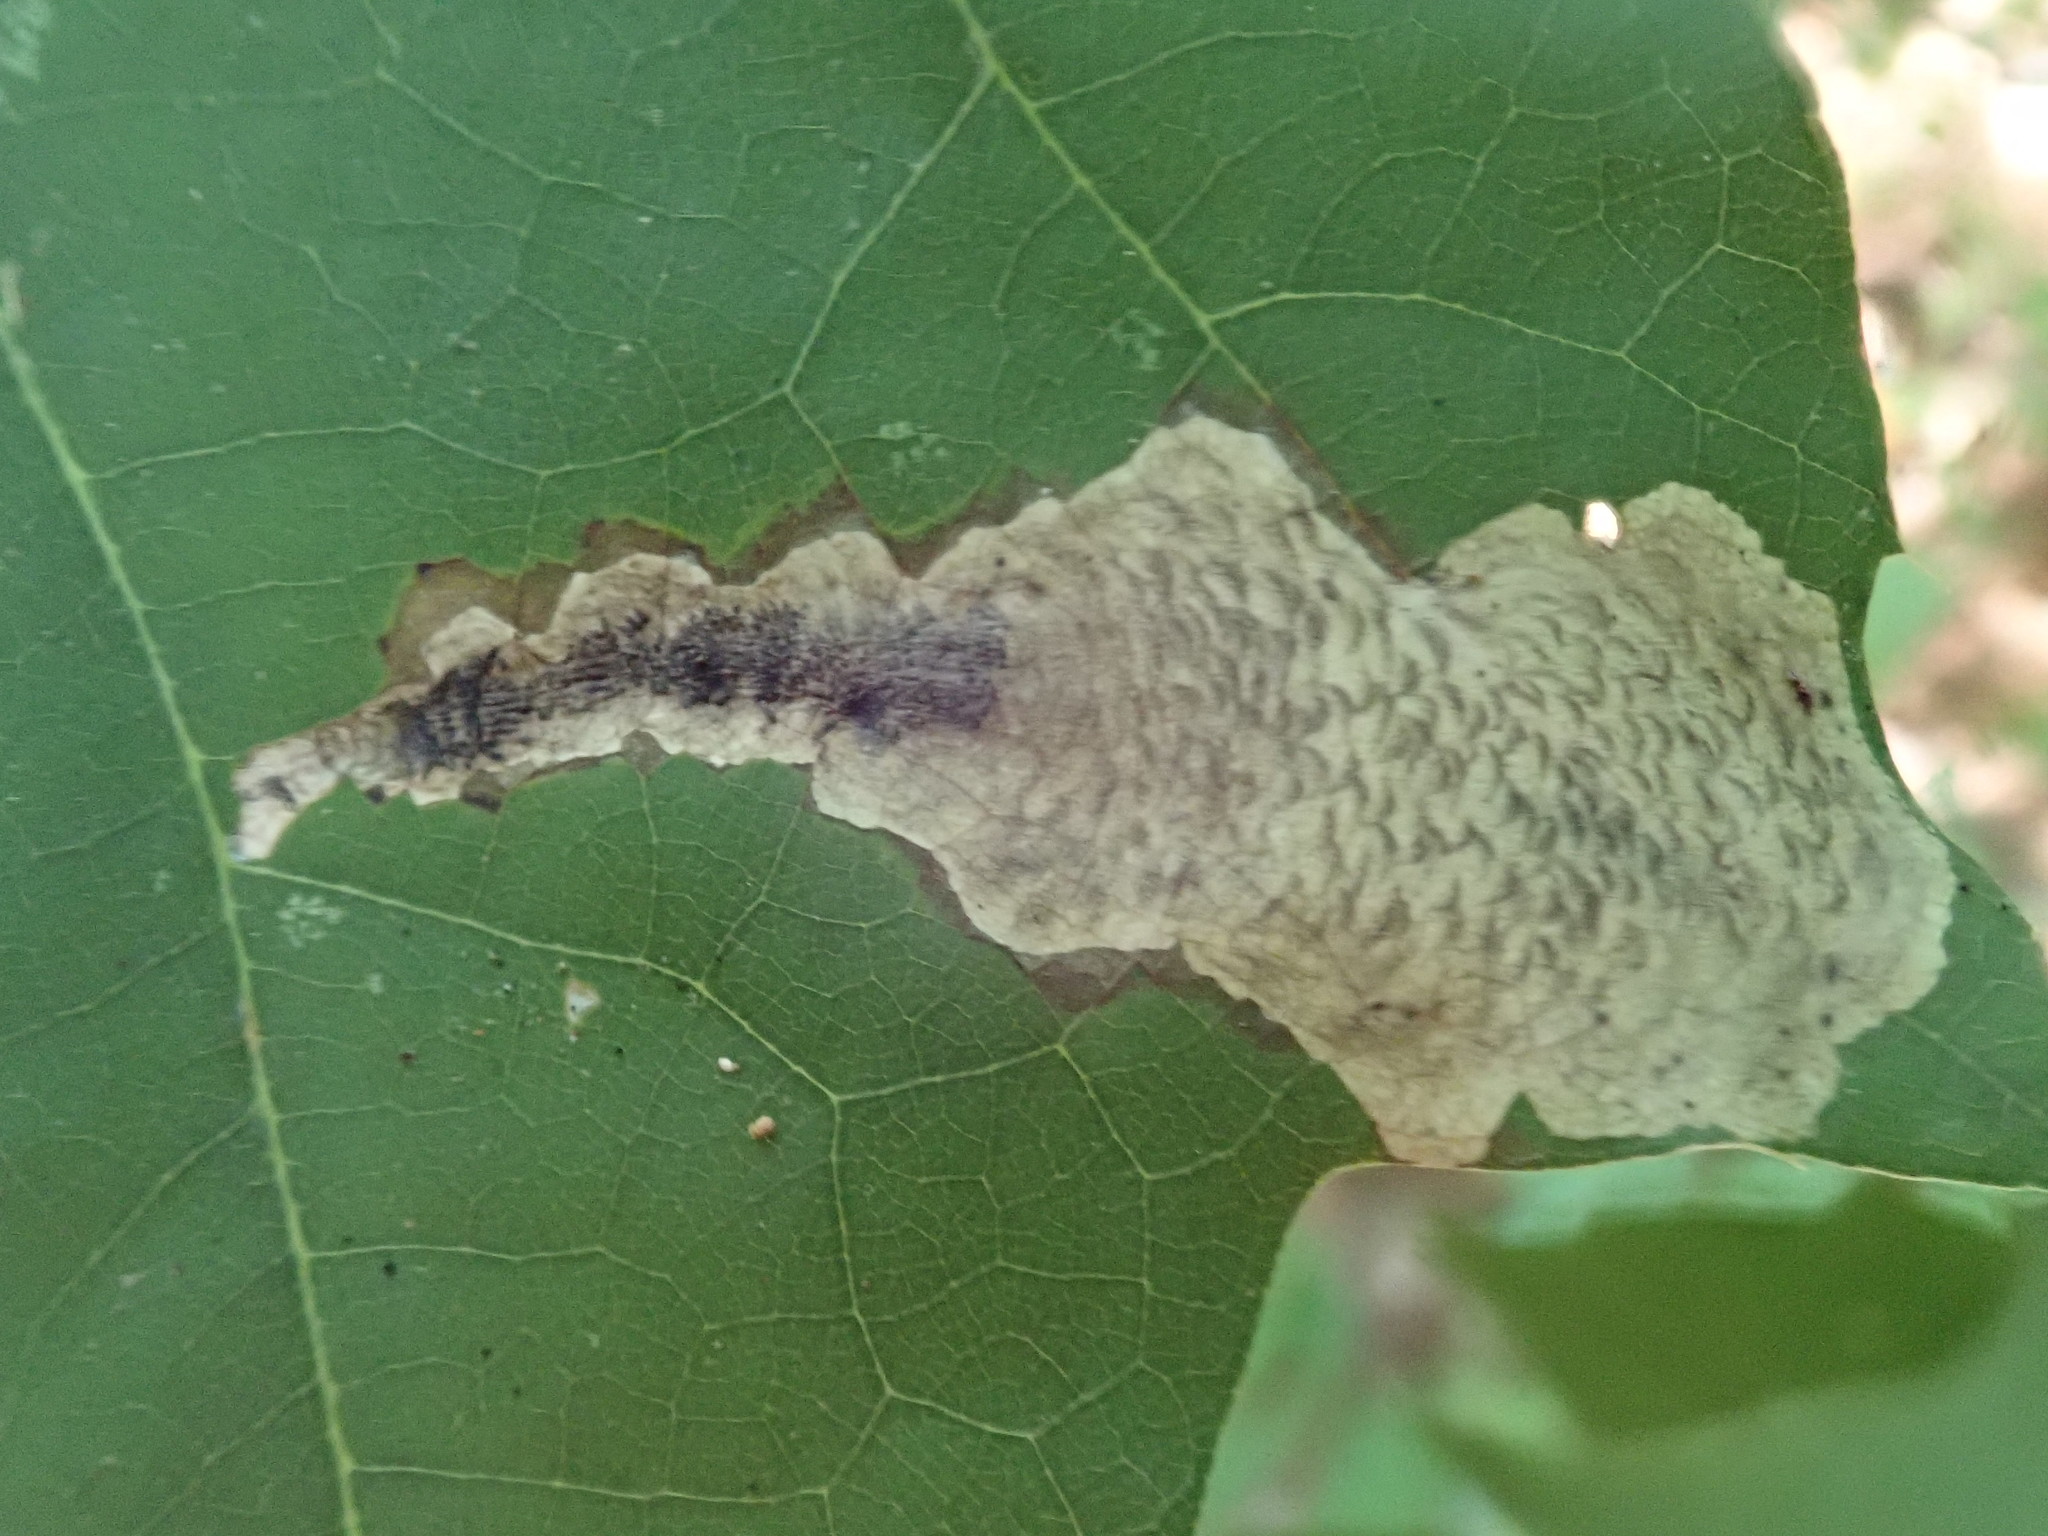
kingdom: Animalia
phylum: Arthropoda
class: Insecta
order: Lepidoptera
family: Tischeriidae
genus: Coptotriche
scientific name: Coptotriche castaneaeella
